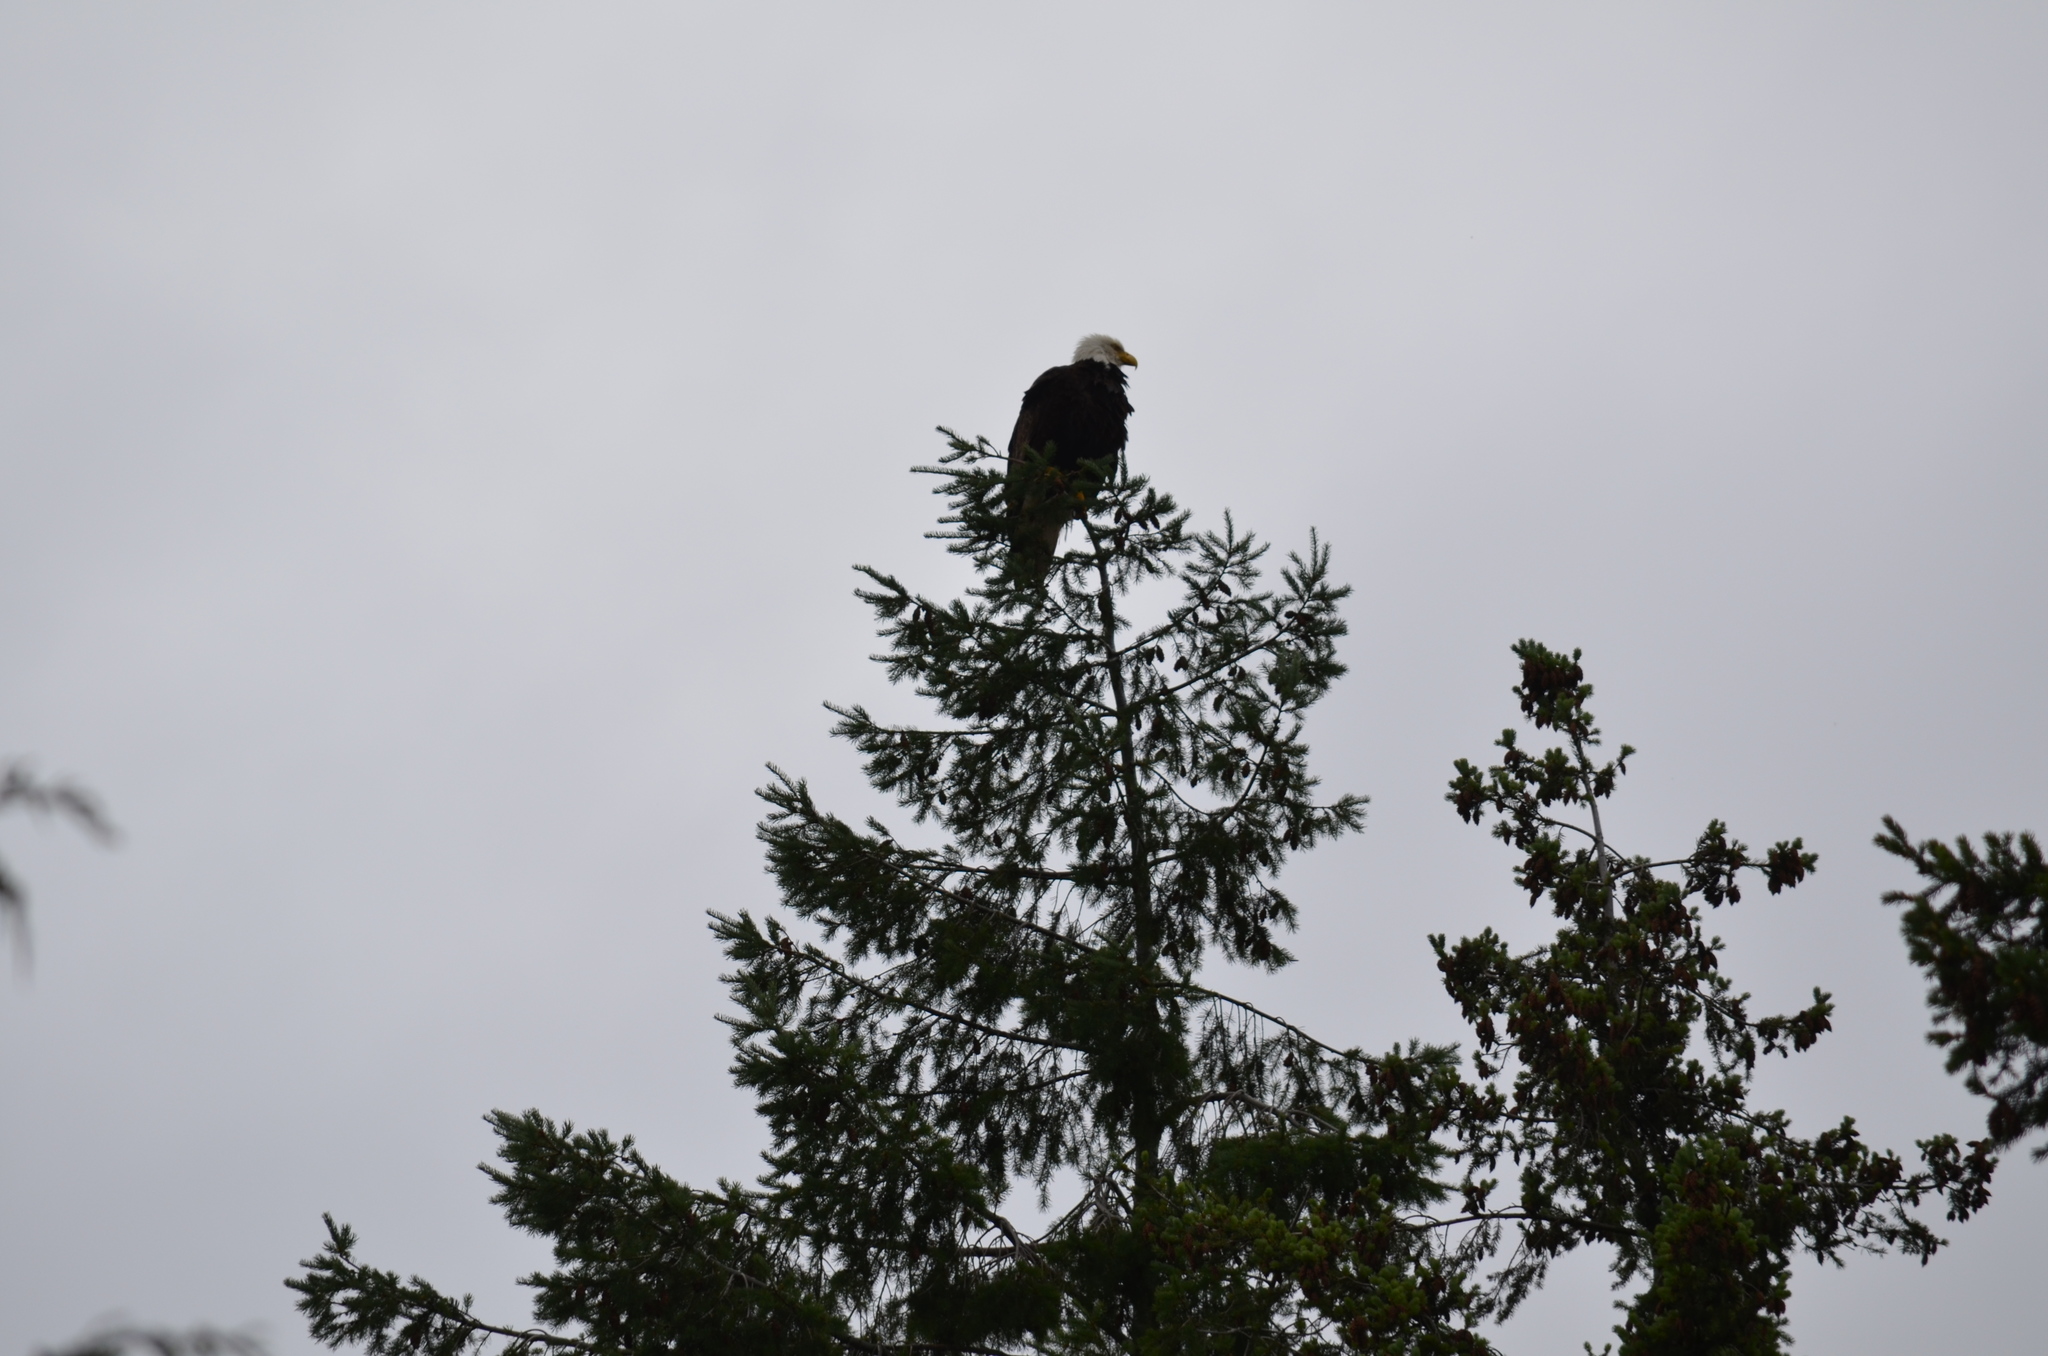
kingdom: Animalia
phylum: Chordata
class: Aves
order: Accipitriformes
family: Accipitridae
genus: Haliaeetus
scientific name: Haliaeetus leucocephalus
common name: Bald eagle
